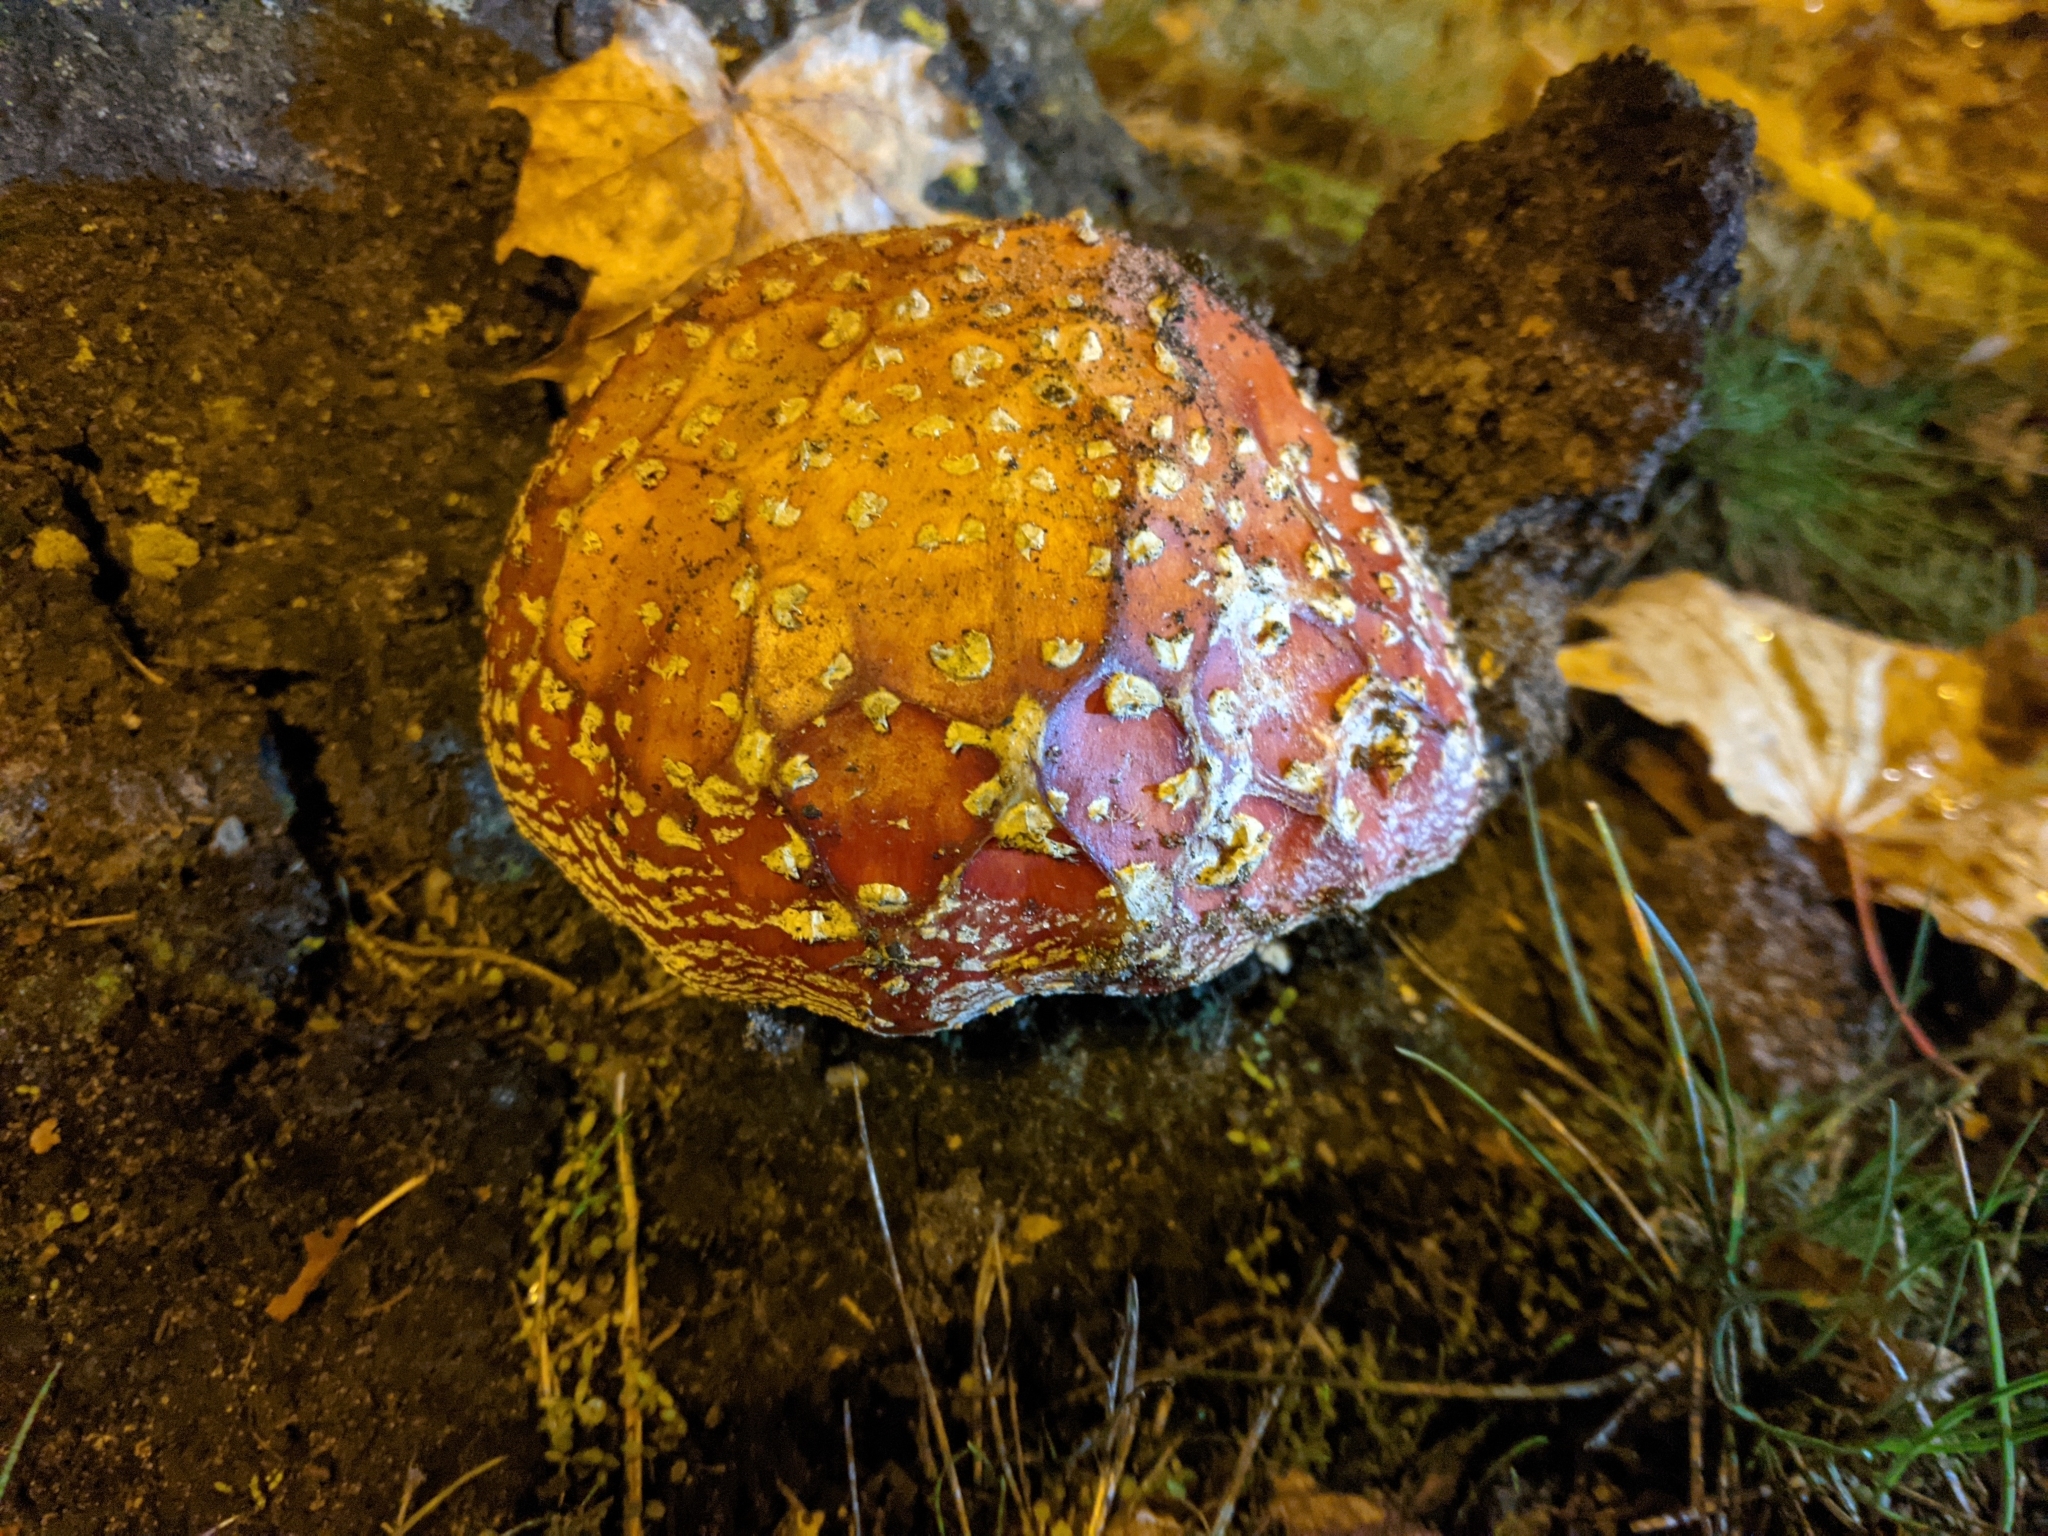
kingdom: Fungi
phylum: Basidiomycota
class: Agaricomycetes
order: Agaricales
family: Amanitaceae
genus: Amanita
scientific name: Amanita muscaria
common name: Fly agaric
